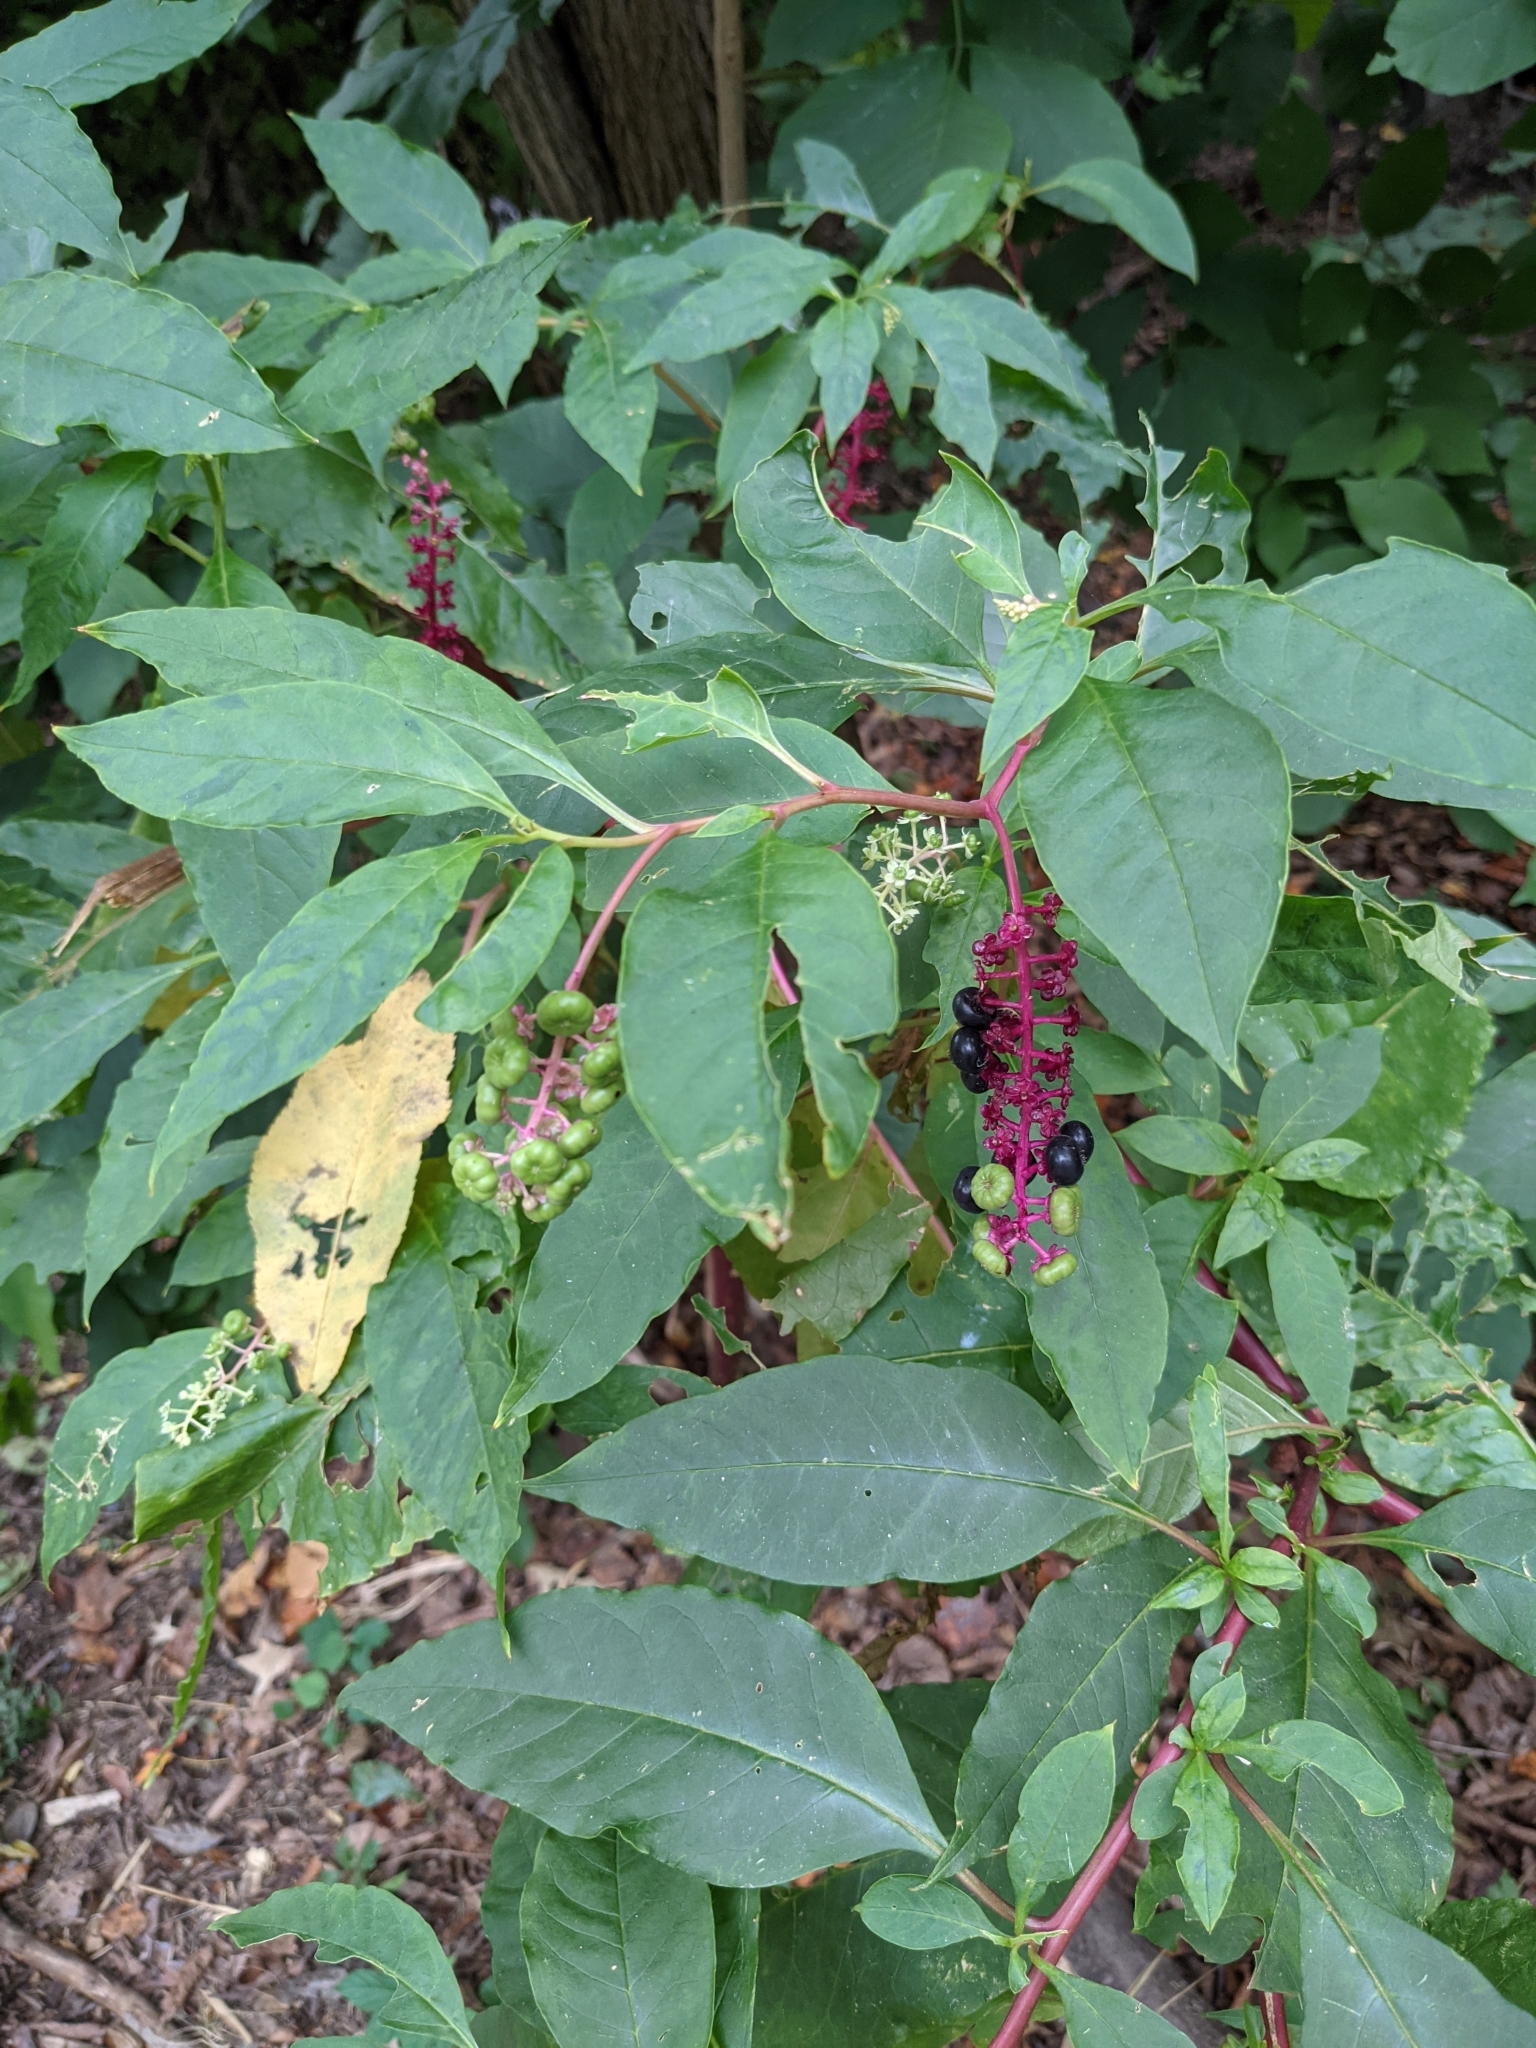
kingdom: Plantae
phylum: Tracheophyta
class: Magnoliopsida
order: Caryophyllales
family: Phytolaccaceae
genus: Phytolacca
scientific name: Phytolacca americana
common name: American pokeweed
